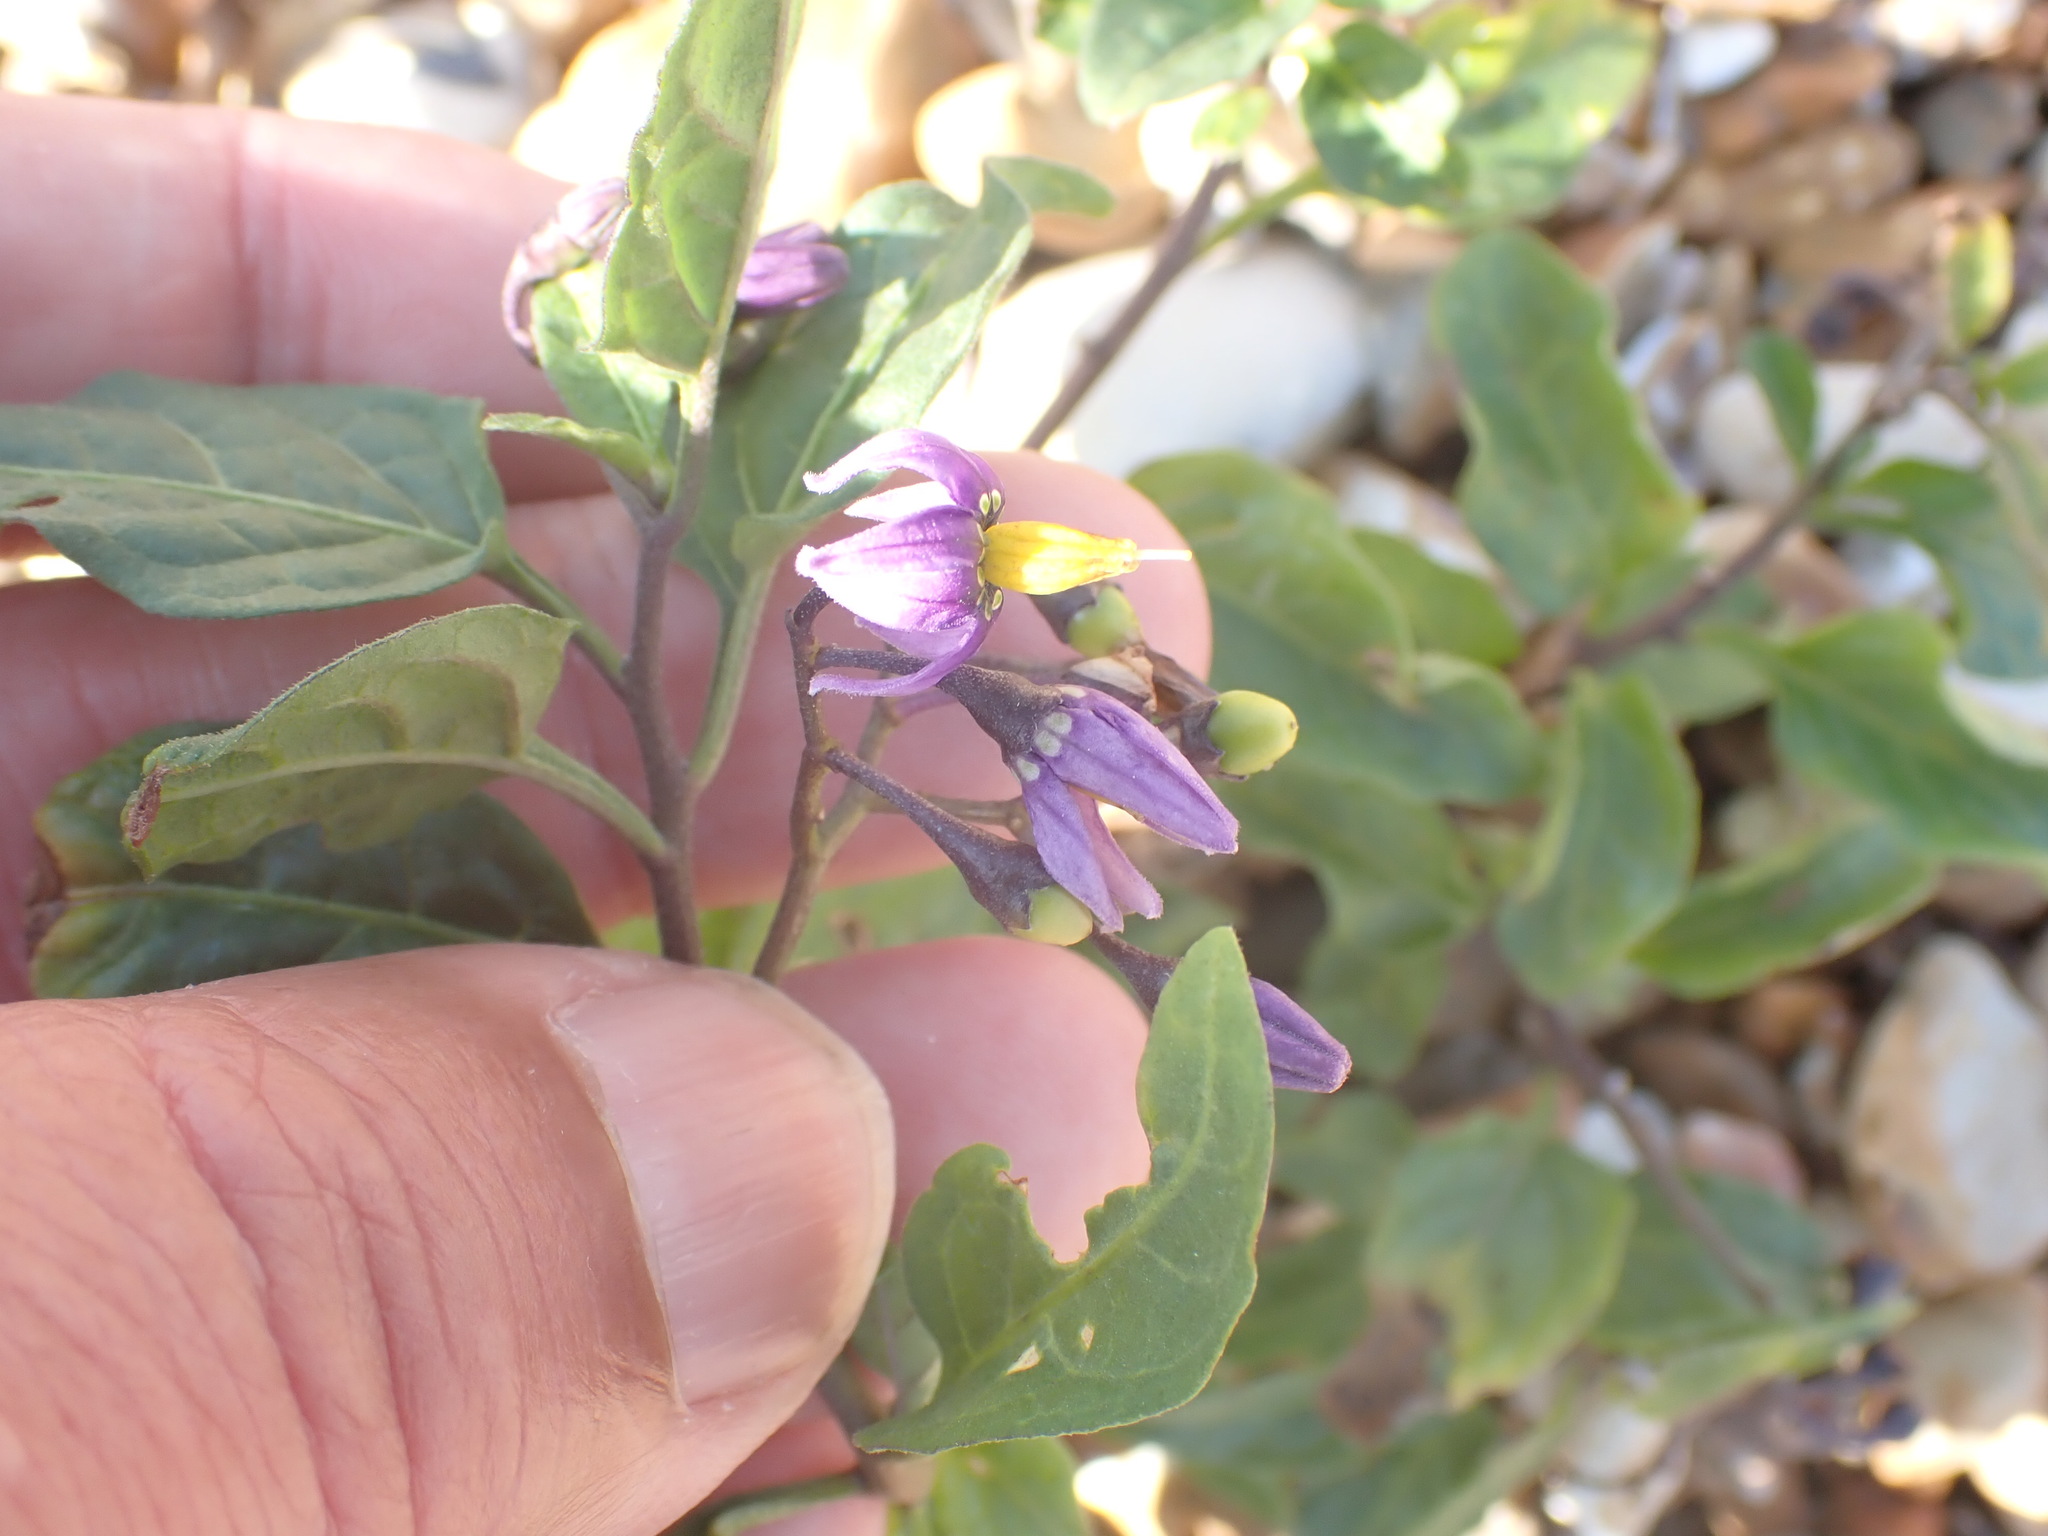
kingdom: Plantae
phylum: Tracheophyta
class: Magnoliopsida
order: Solanales
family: Solanaceae
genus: Solanum
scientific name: Solanum dulcamara
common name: Climbing nightshade
